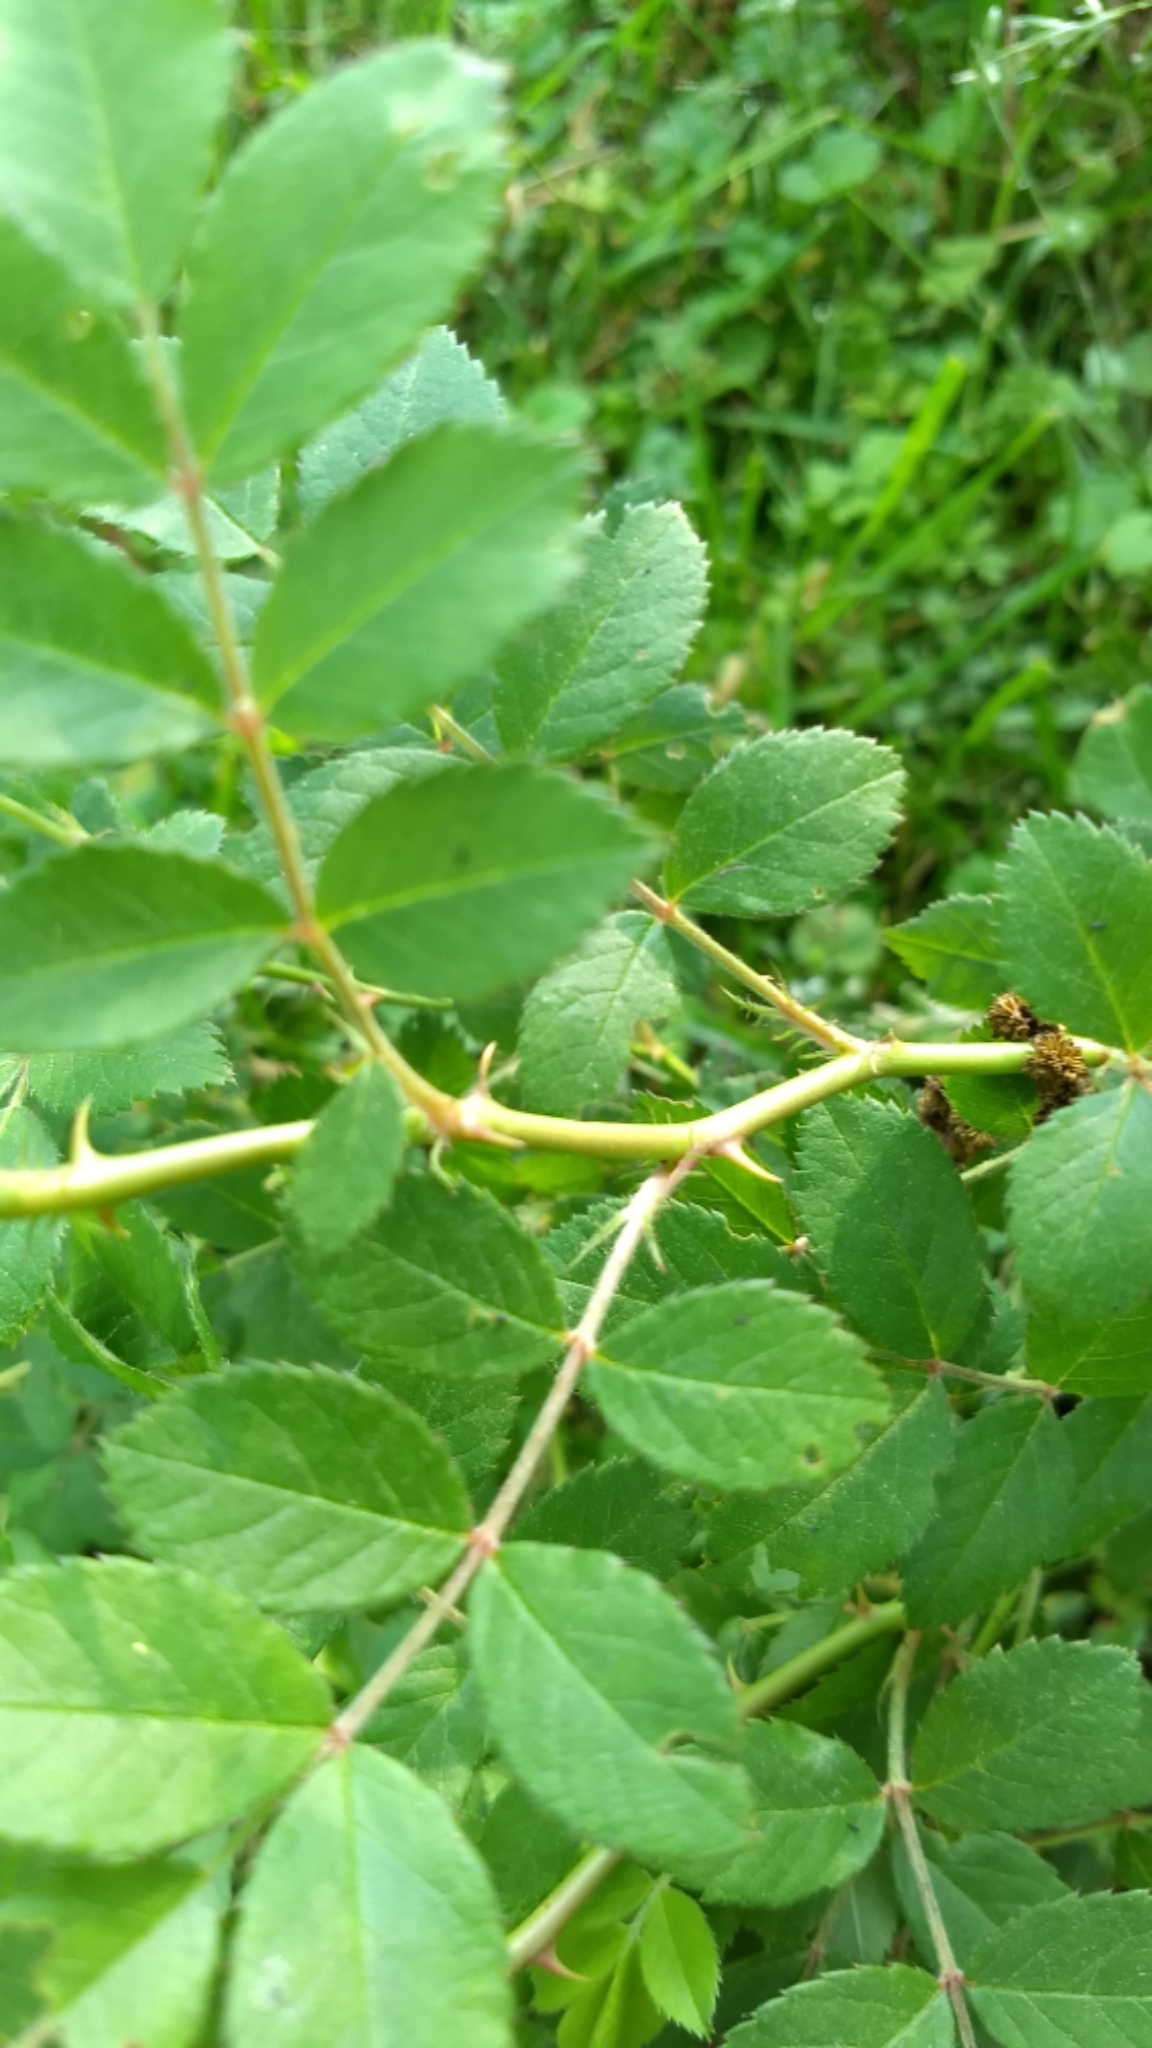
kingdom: Plantae
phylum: Tracheophyta
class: Magnoliopsida
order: Rosales
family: Rosaceae
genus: Rosa
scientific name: Rosa multiflora
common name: Multiflora rose
